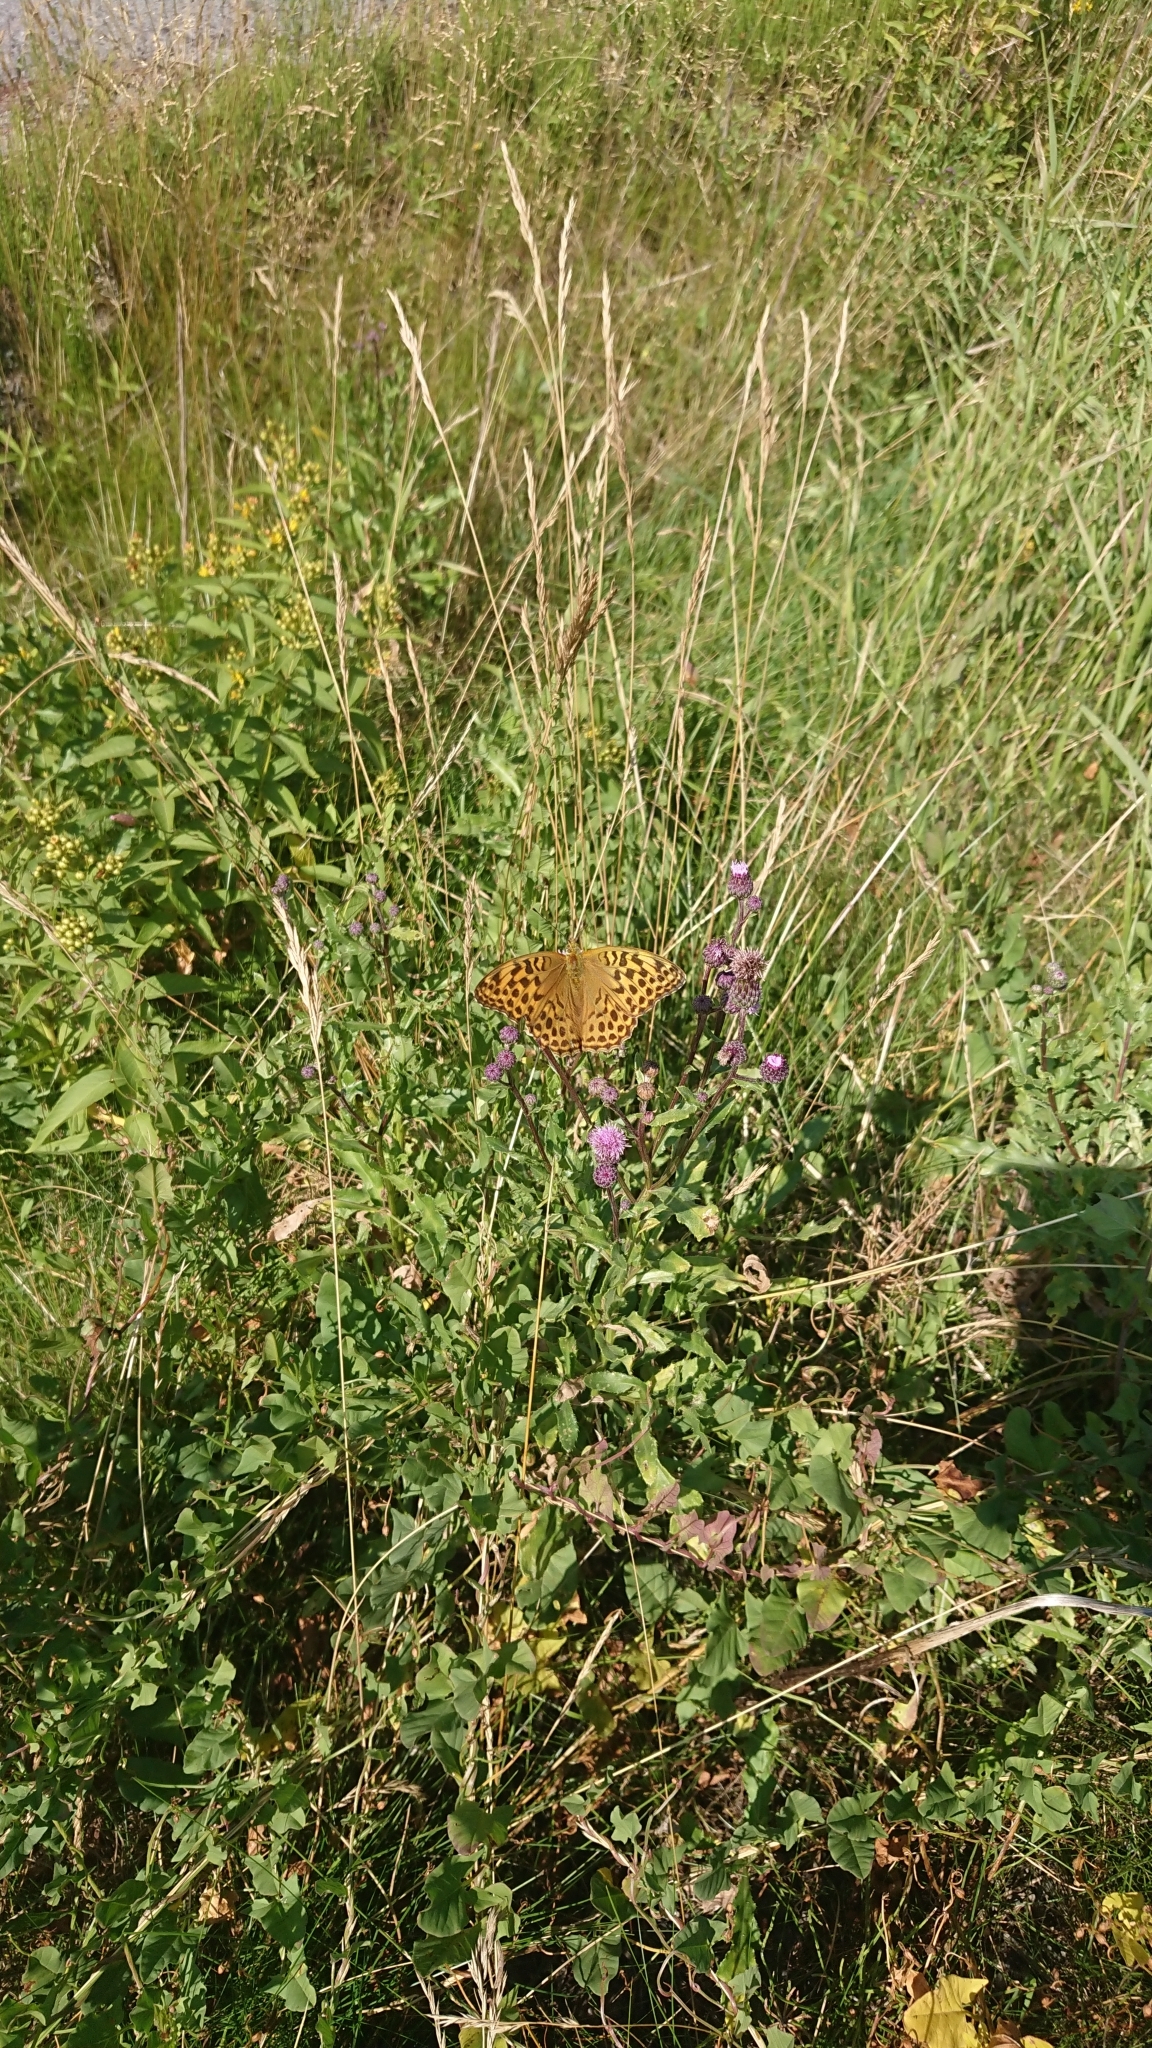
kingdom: Animalia
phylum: Arthropoda
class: Insecta
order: Lepidoptera
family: Nymphalidae
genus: Argynnis
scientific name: Argynnis paphia
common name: Silver-washed fritillary
